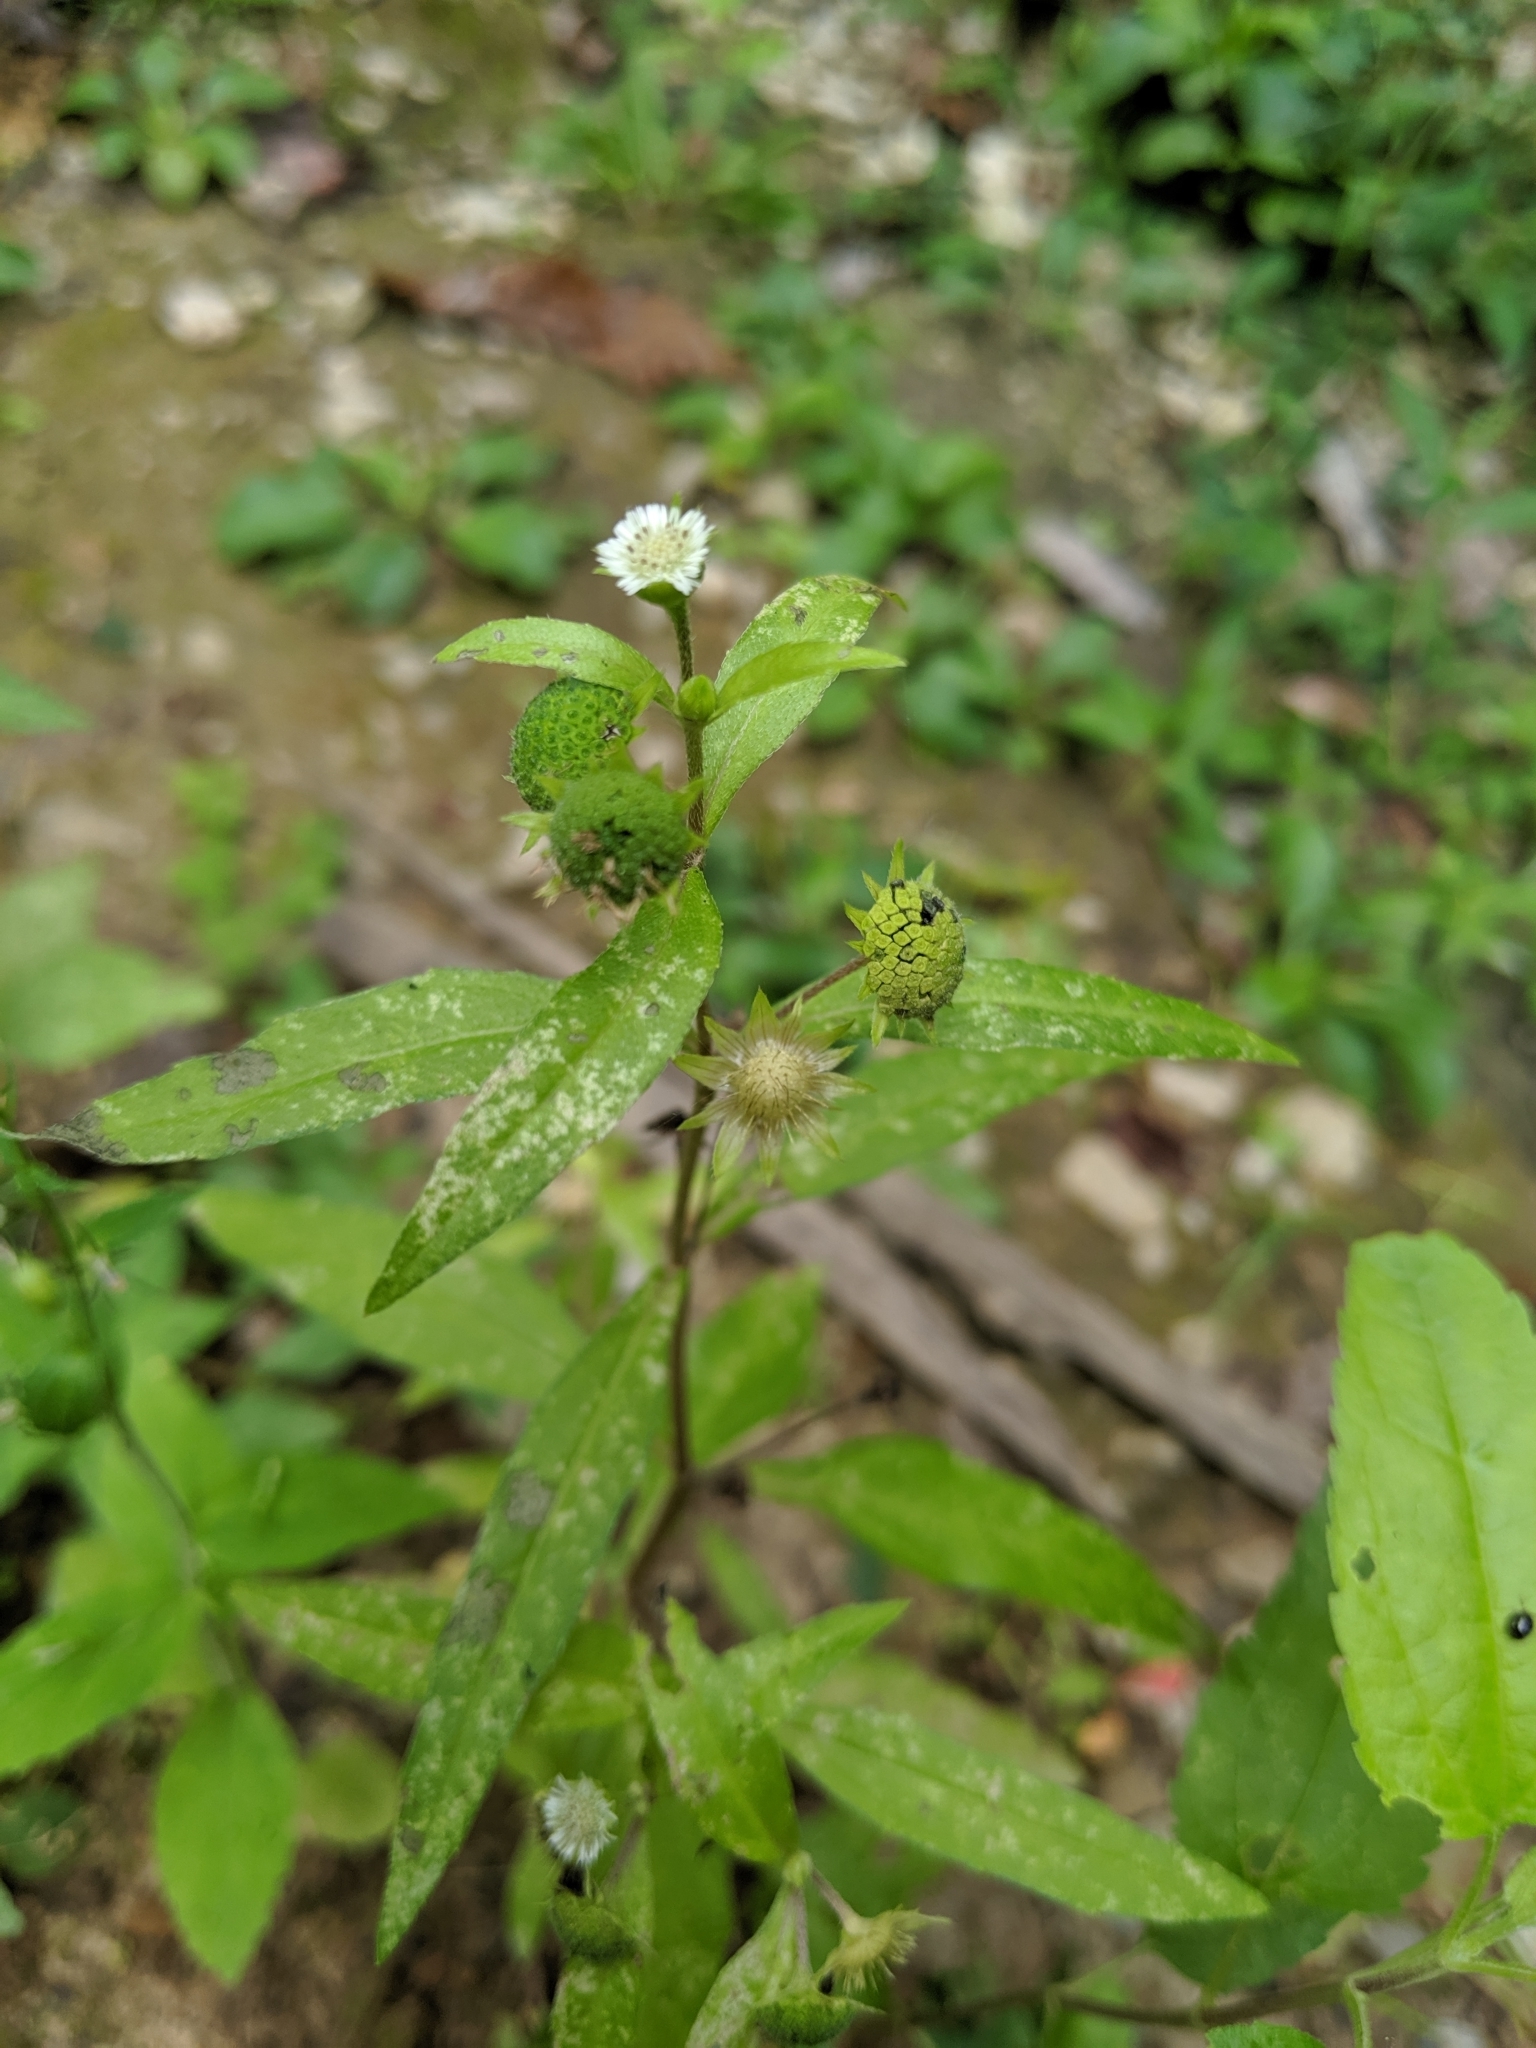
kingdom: Plantae
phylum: Tracheophyta
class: Magnoliopsida
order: Asterales
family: Asteraceae
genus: Eclipta
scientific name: Eclipta prostrata
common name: False daisy
